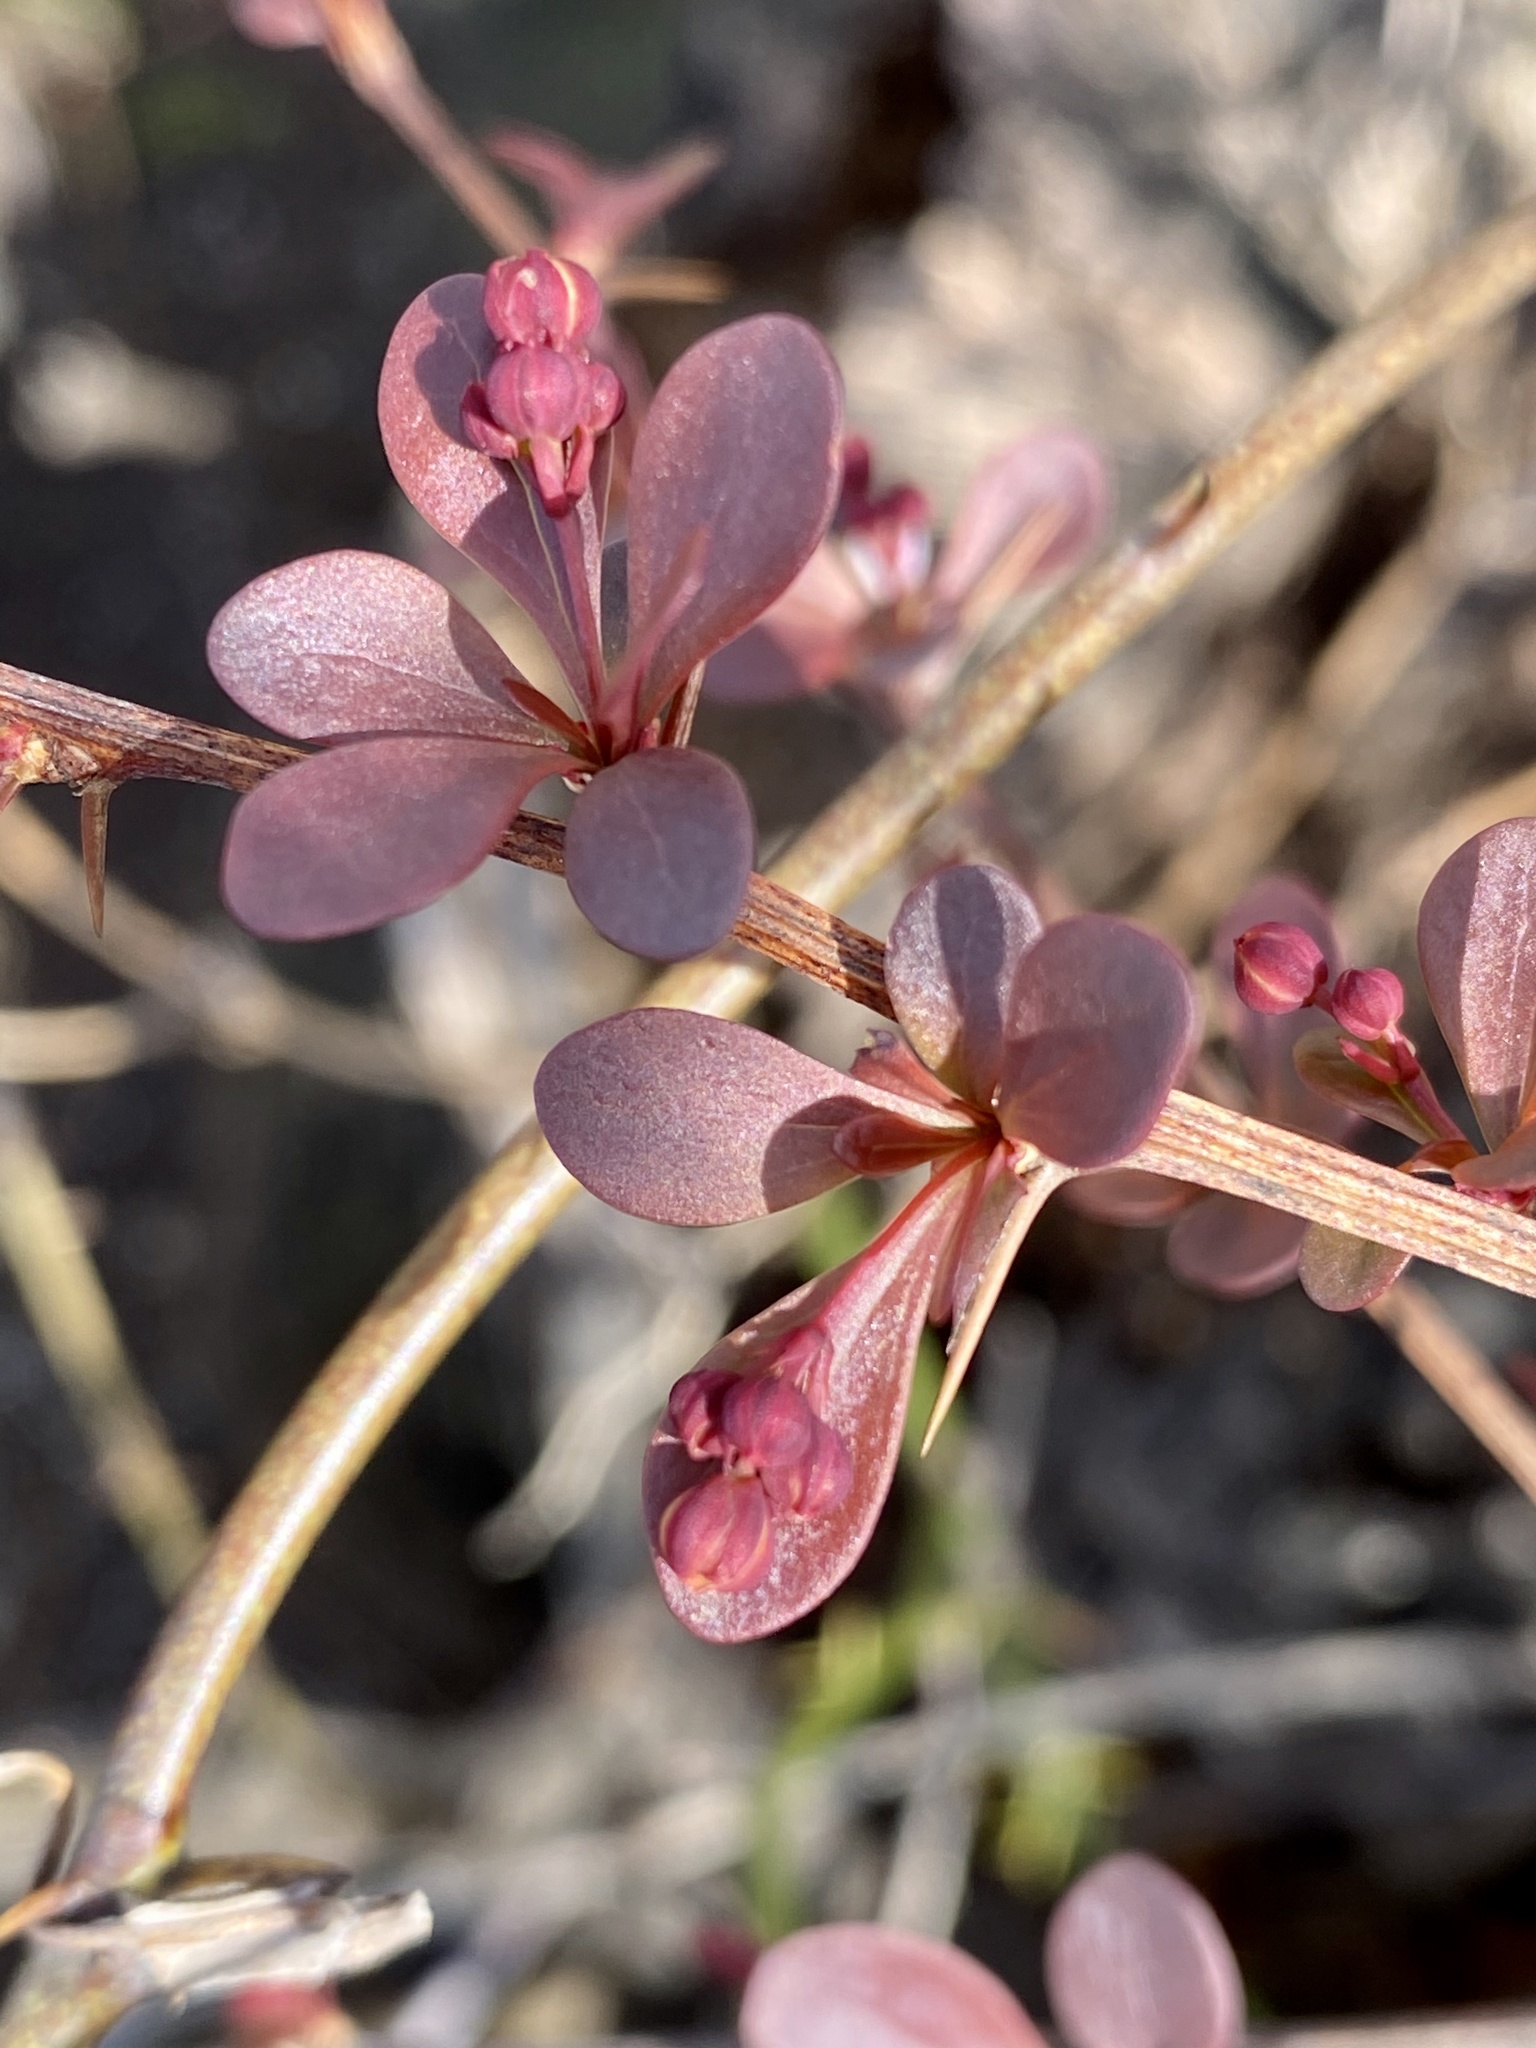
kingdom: Plantae
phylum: Tracheophyta
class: Magnoliopsida
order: Ranunculales
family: Berberidaceae
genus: Berberis
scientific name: Berberis thunbergii
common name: Japanese barberry
